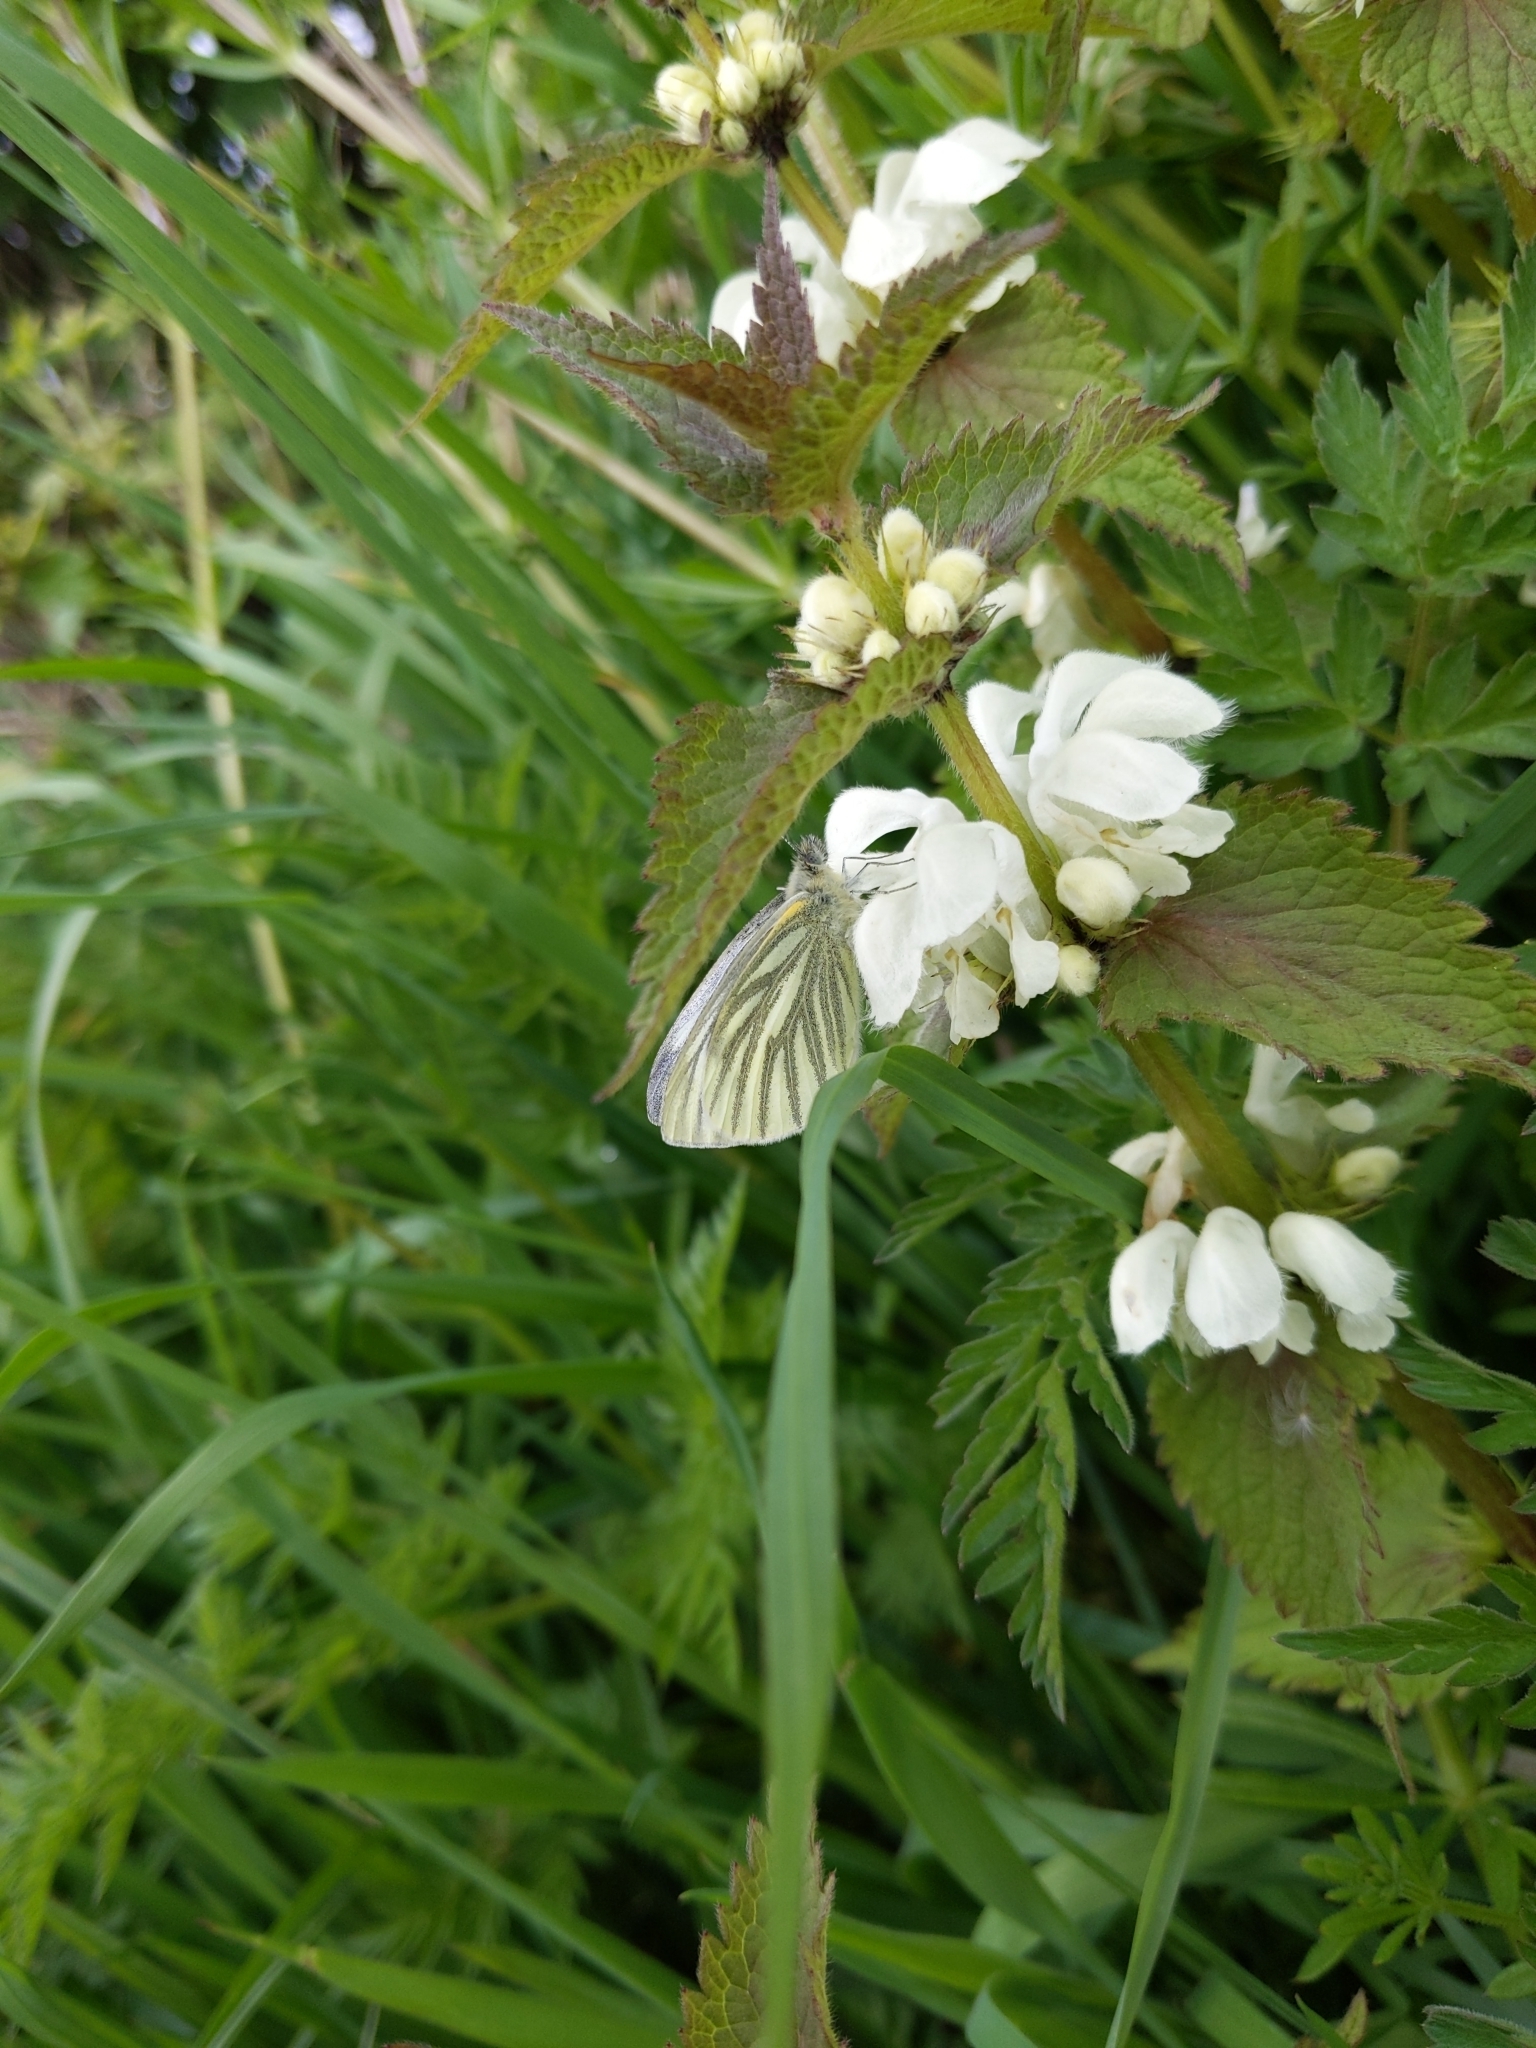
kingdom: Animalia
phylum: Arthropoda
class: Insecta
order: Lepidoptera
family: Pieridae
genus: Pieris
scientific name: Pieris napi
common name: Green-veined white
